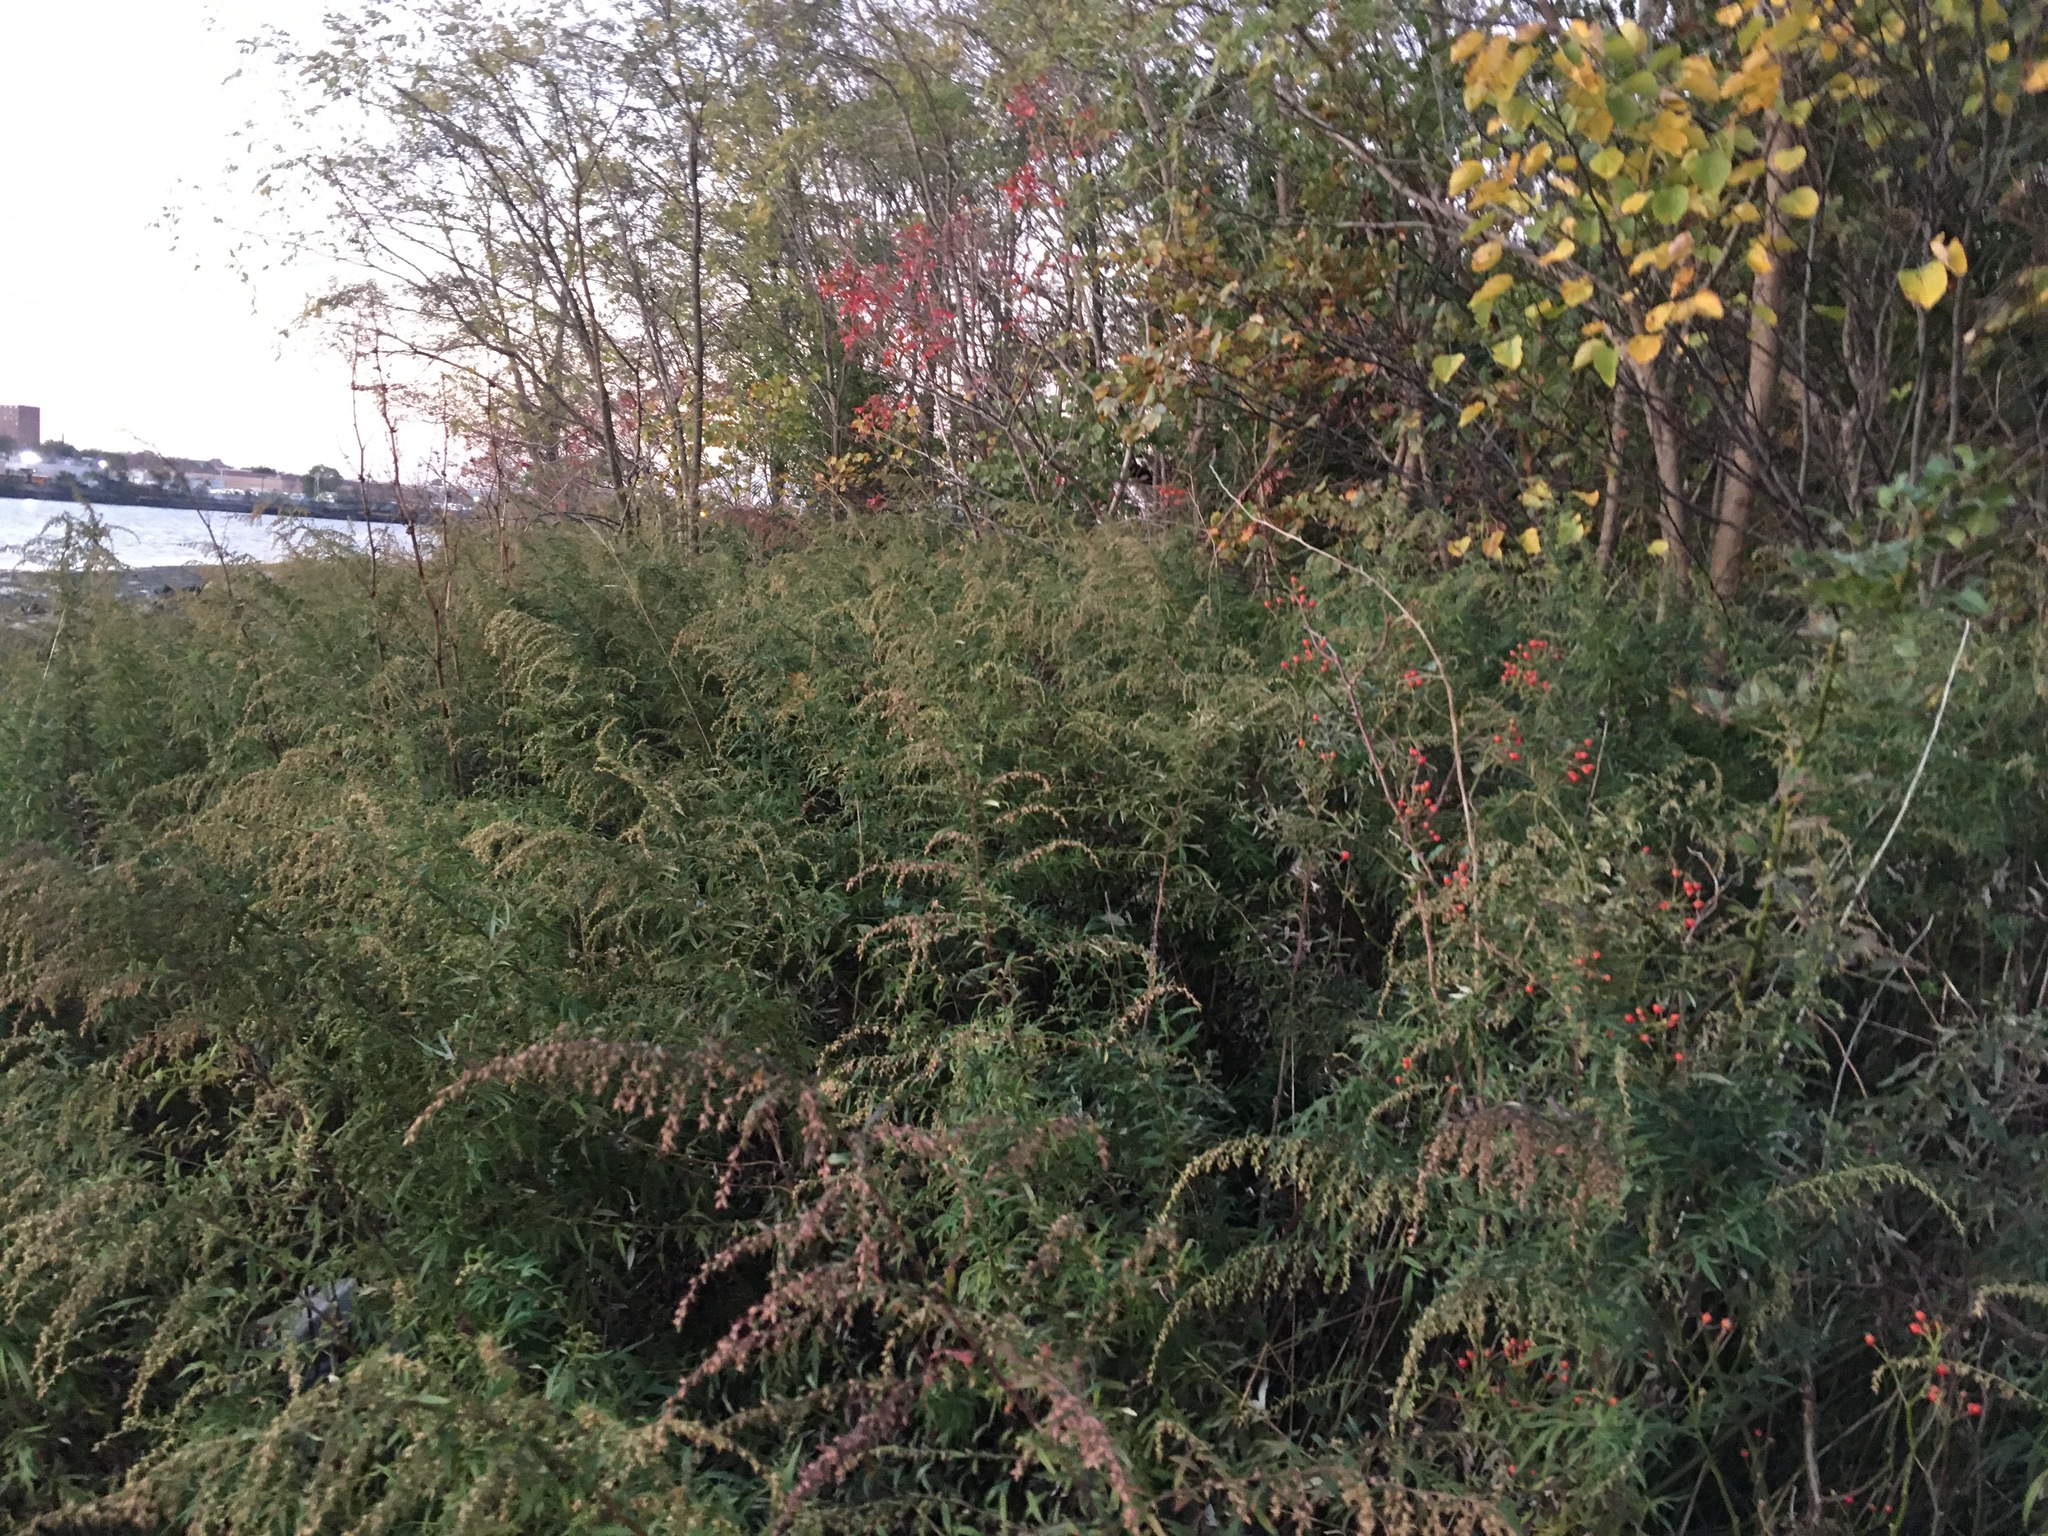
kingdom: Plantae
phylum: Tracheophyta
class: Magnoliopsida
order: Asterales
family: Asteraceae
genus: Artemisia
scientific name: Artemisia vulgaris
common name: Mugwort
